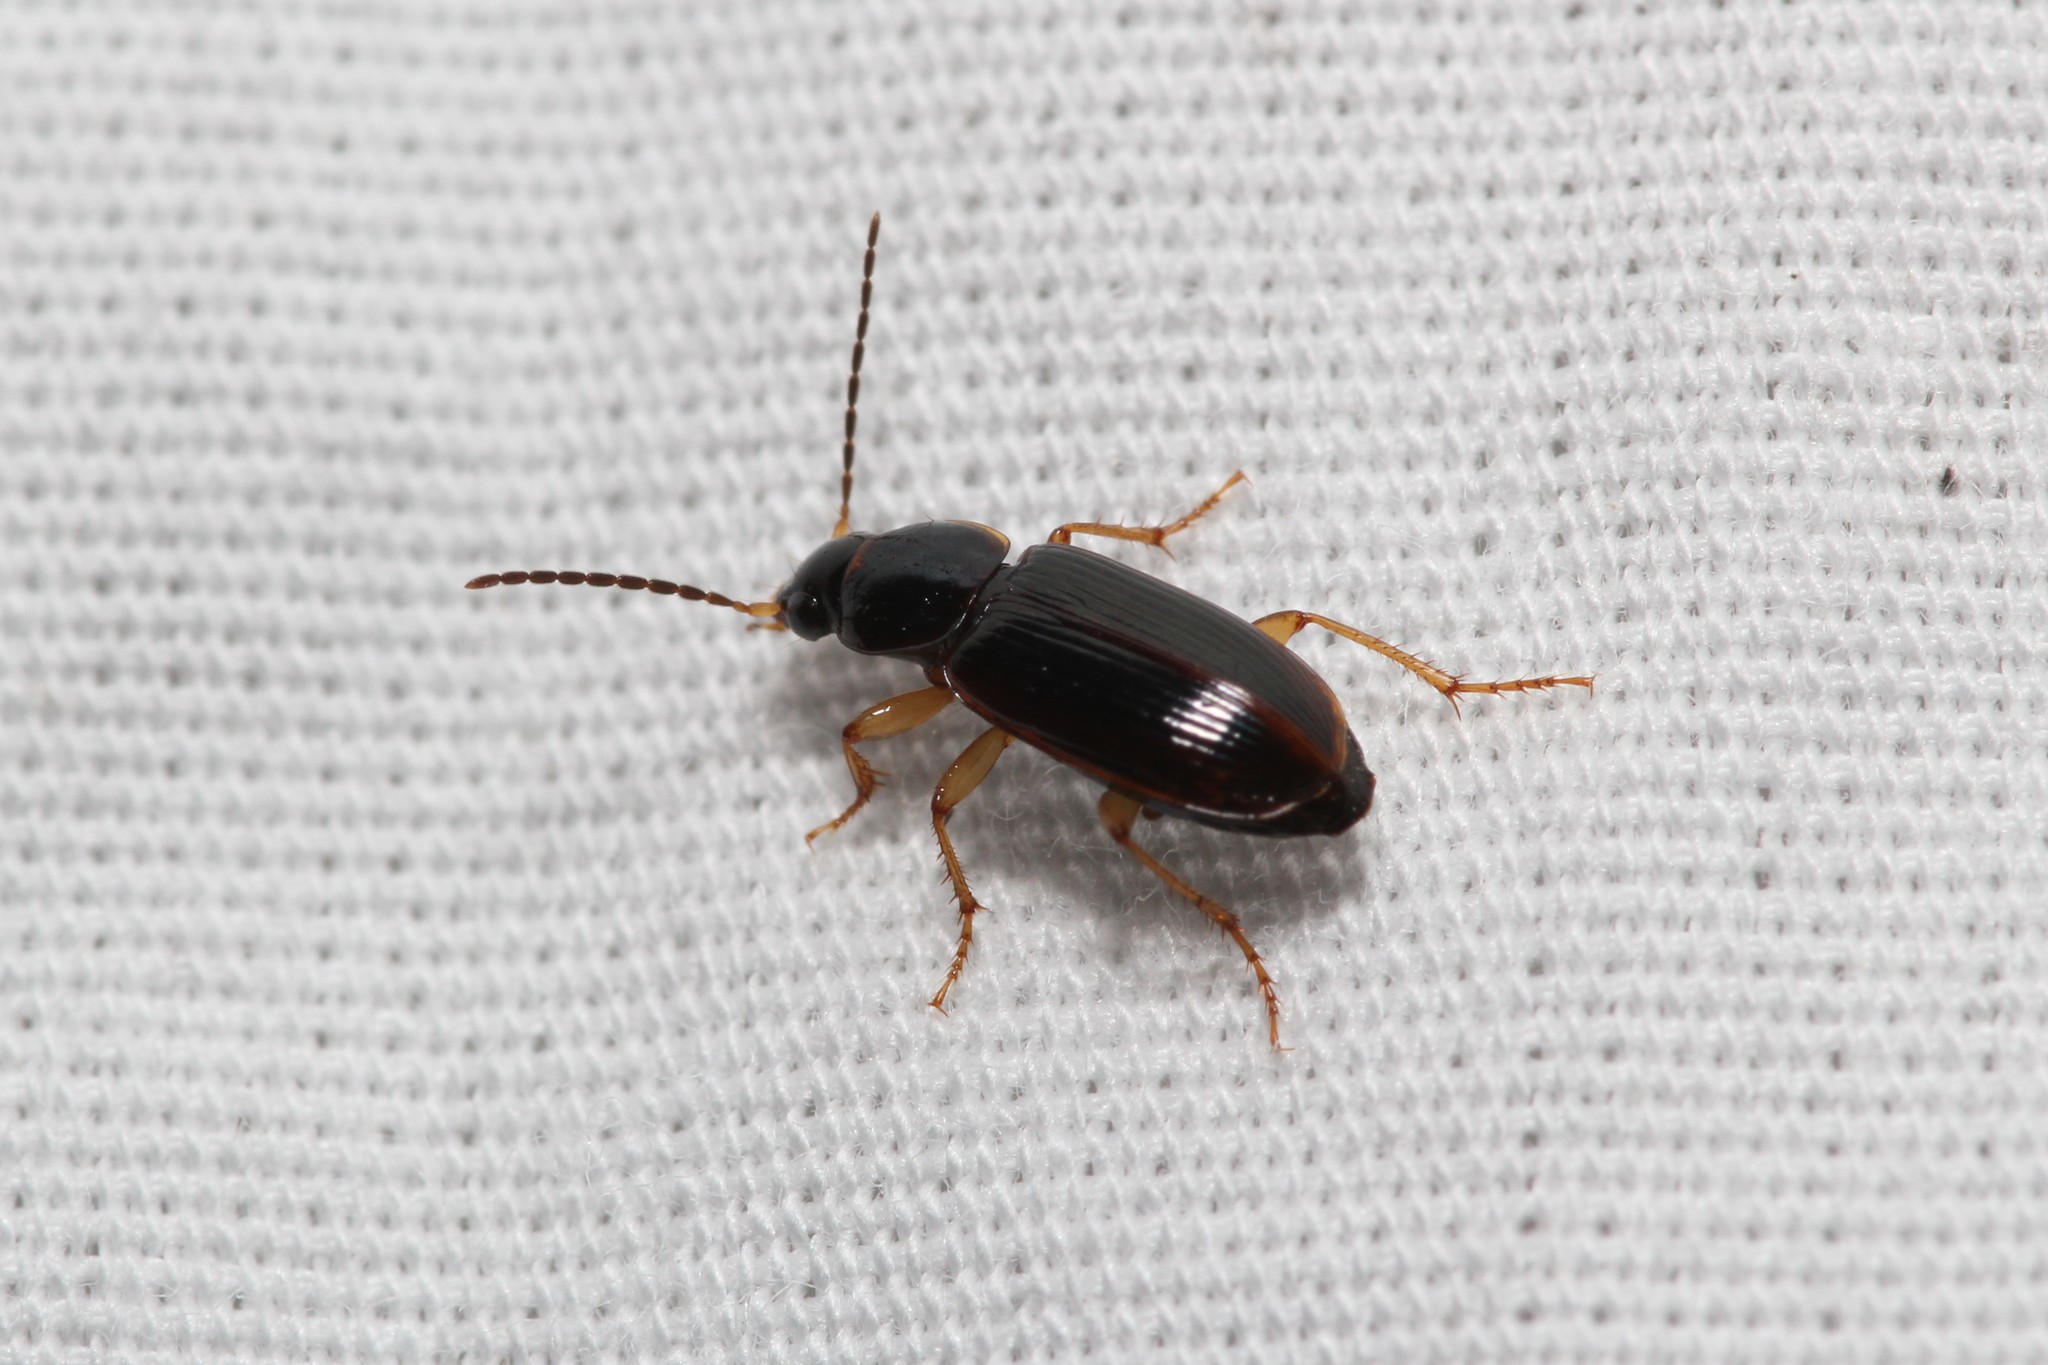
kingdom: Animalia
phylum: Arthropoda
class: Insecta
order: Coleoptera
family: Carabidae
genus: Stenolophus
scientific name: Stenolophus ochropezus
